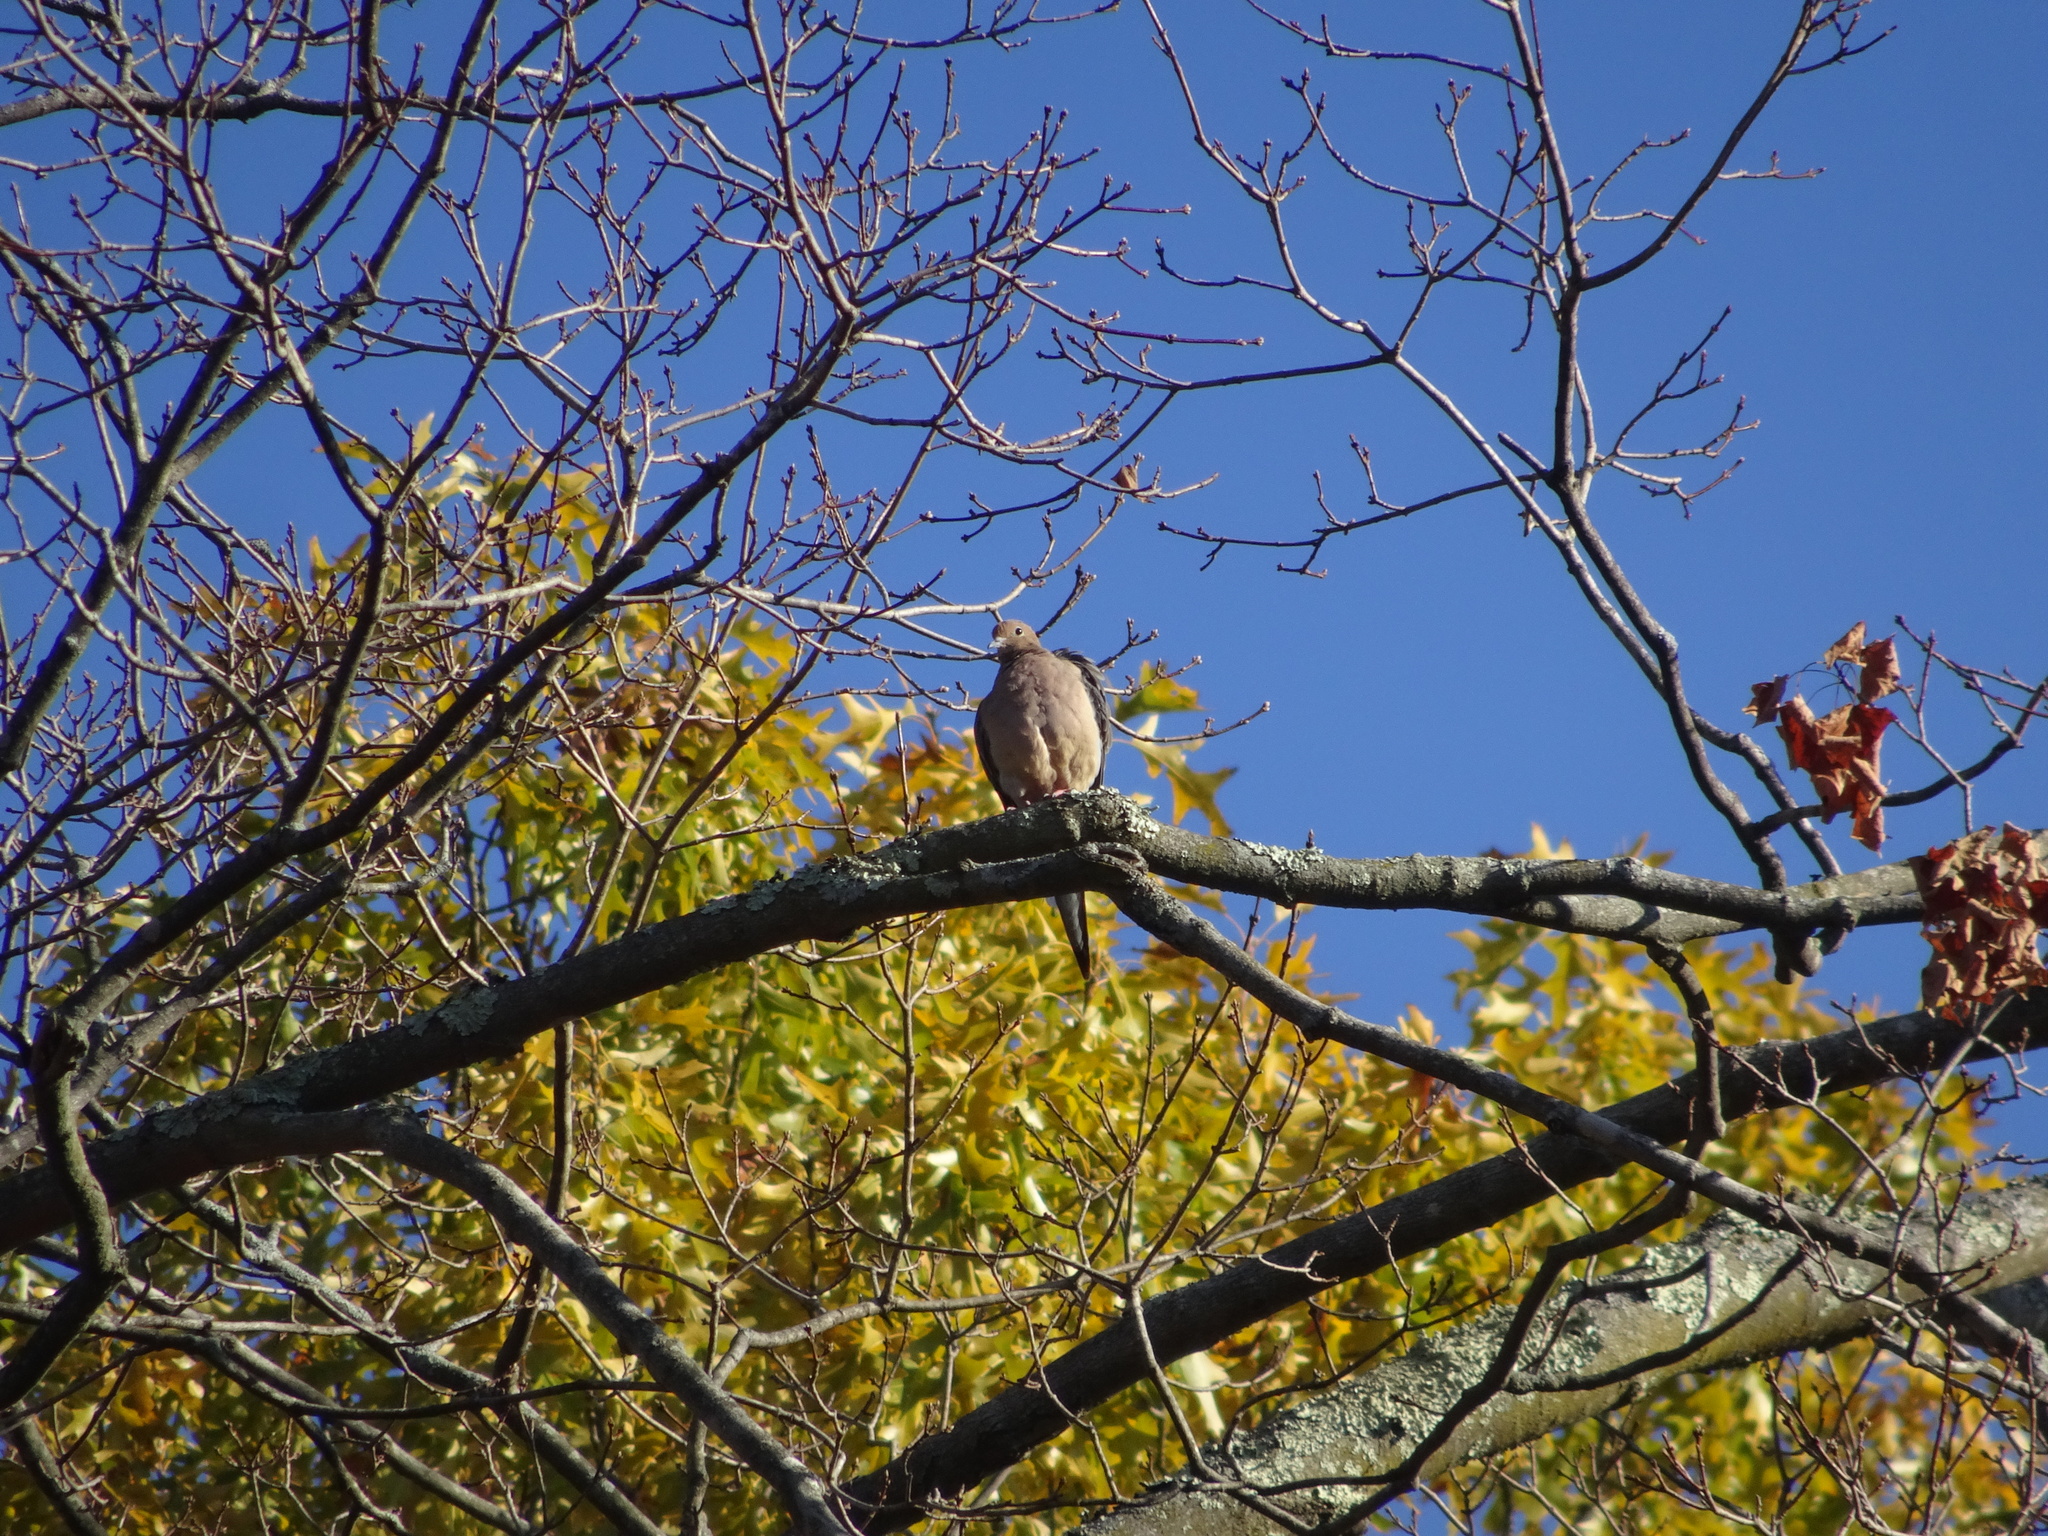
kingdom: Animalia
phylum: Chordata
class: Aves
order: Columbiformes
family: Columbidae
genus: Zenaida
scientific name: Zenaida macroura
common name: Mourning dove
